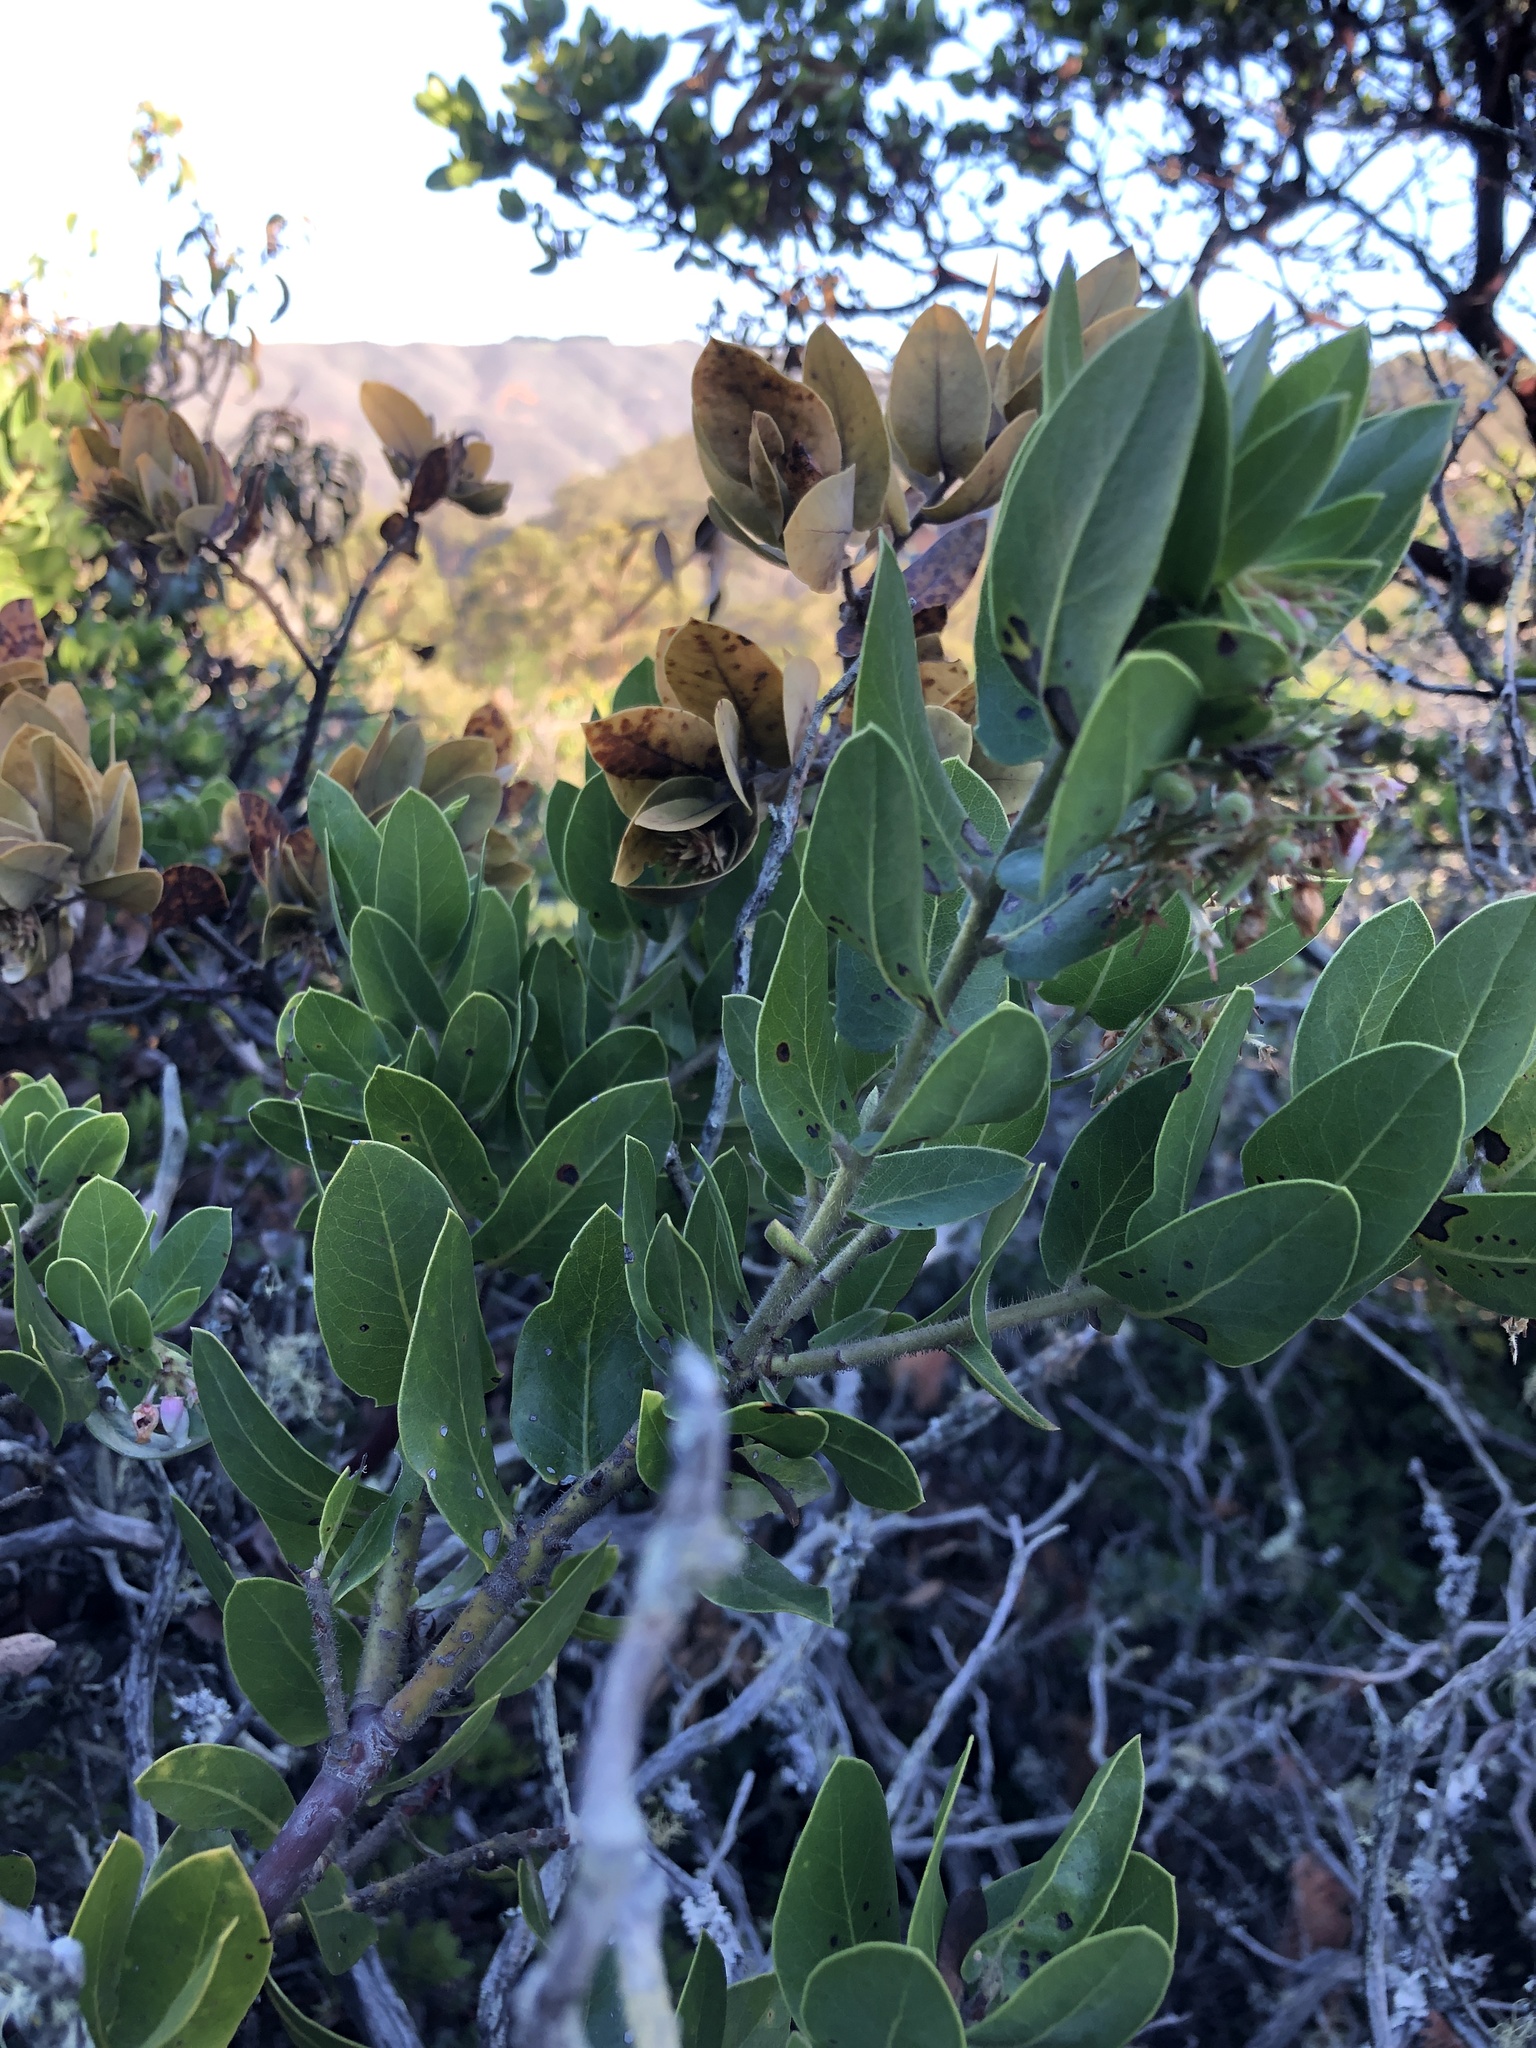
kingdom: Plantae
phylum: Tracheophyta
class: Magnoliopsida
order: Ericales
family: Ericaceae
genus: Arctostaphylos
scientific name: Arctostaphylos montaraensis
